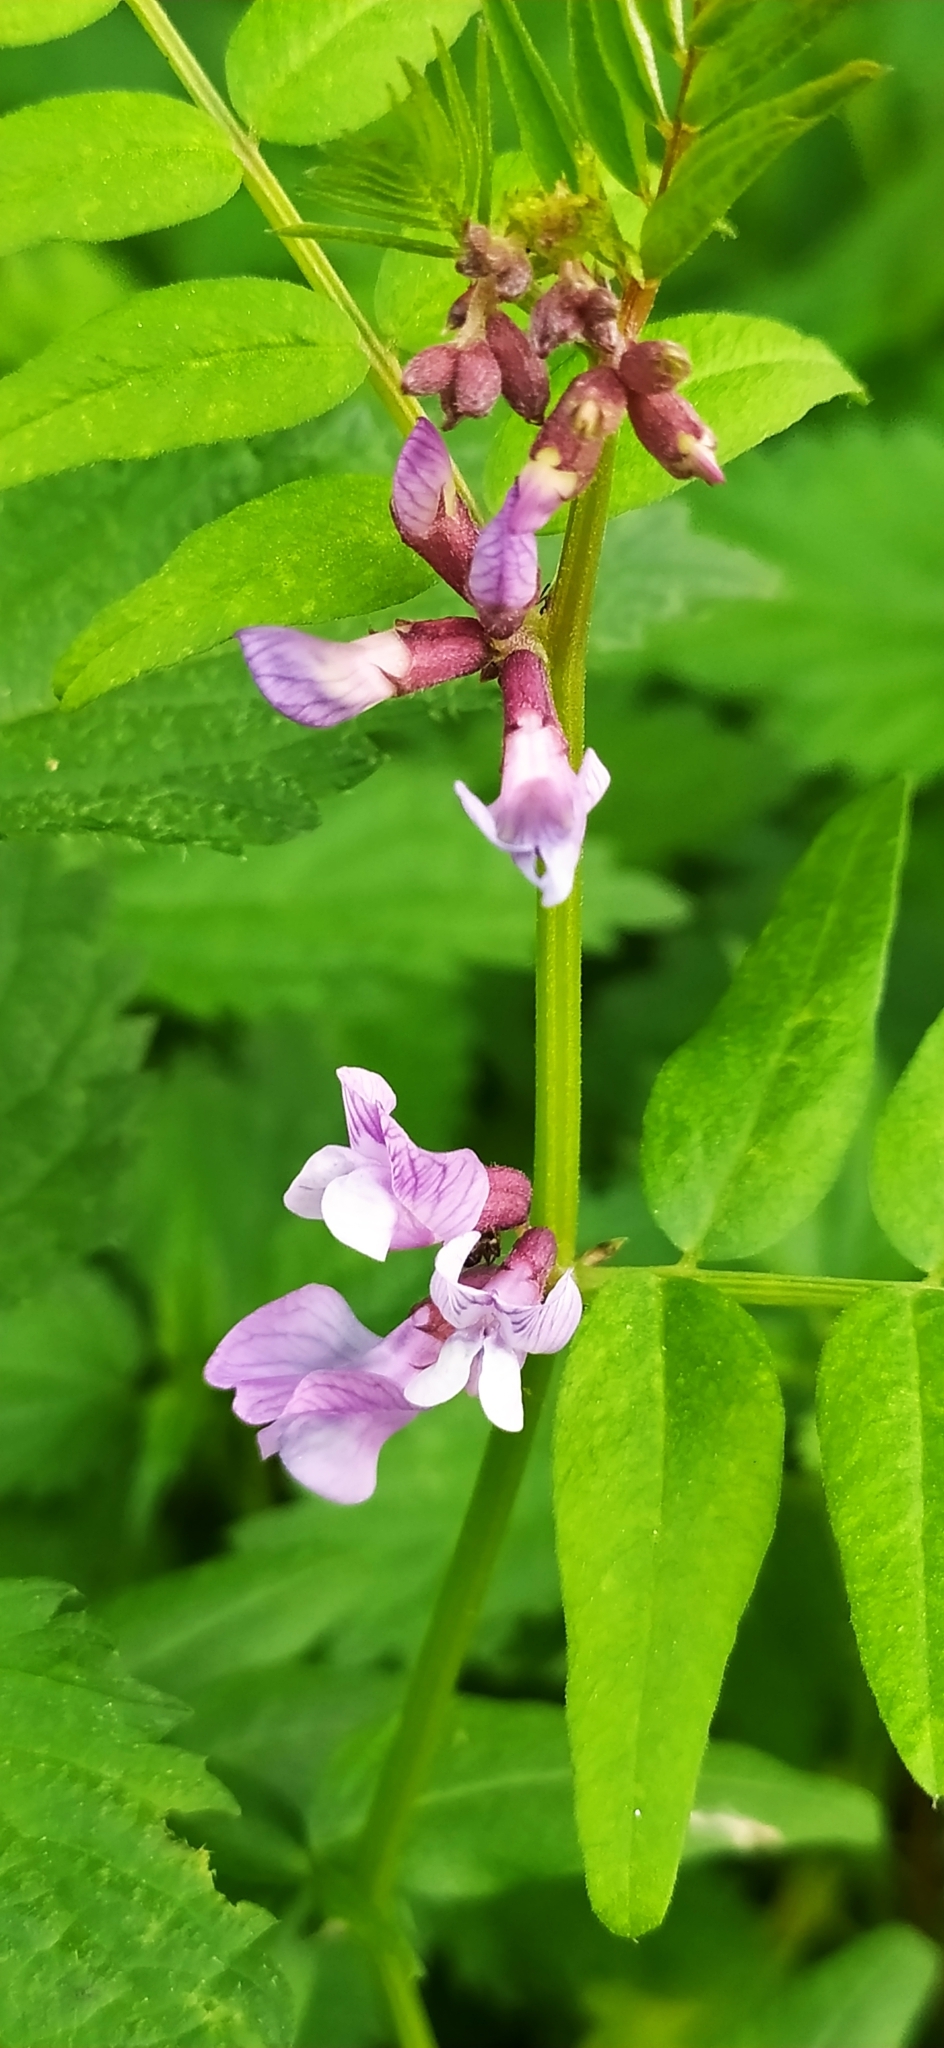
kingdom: Plantae
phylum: Tracheophyta
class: Magnoliopsida
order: Fabales
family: Fabaceae
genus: Vicia
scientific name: Vicia sepium
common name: Bush vetch
